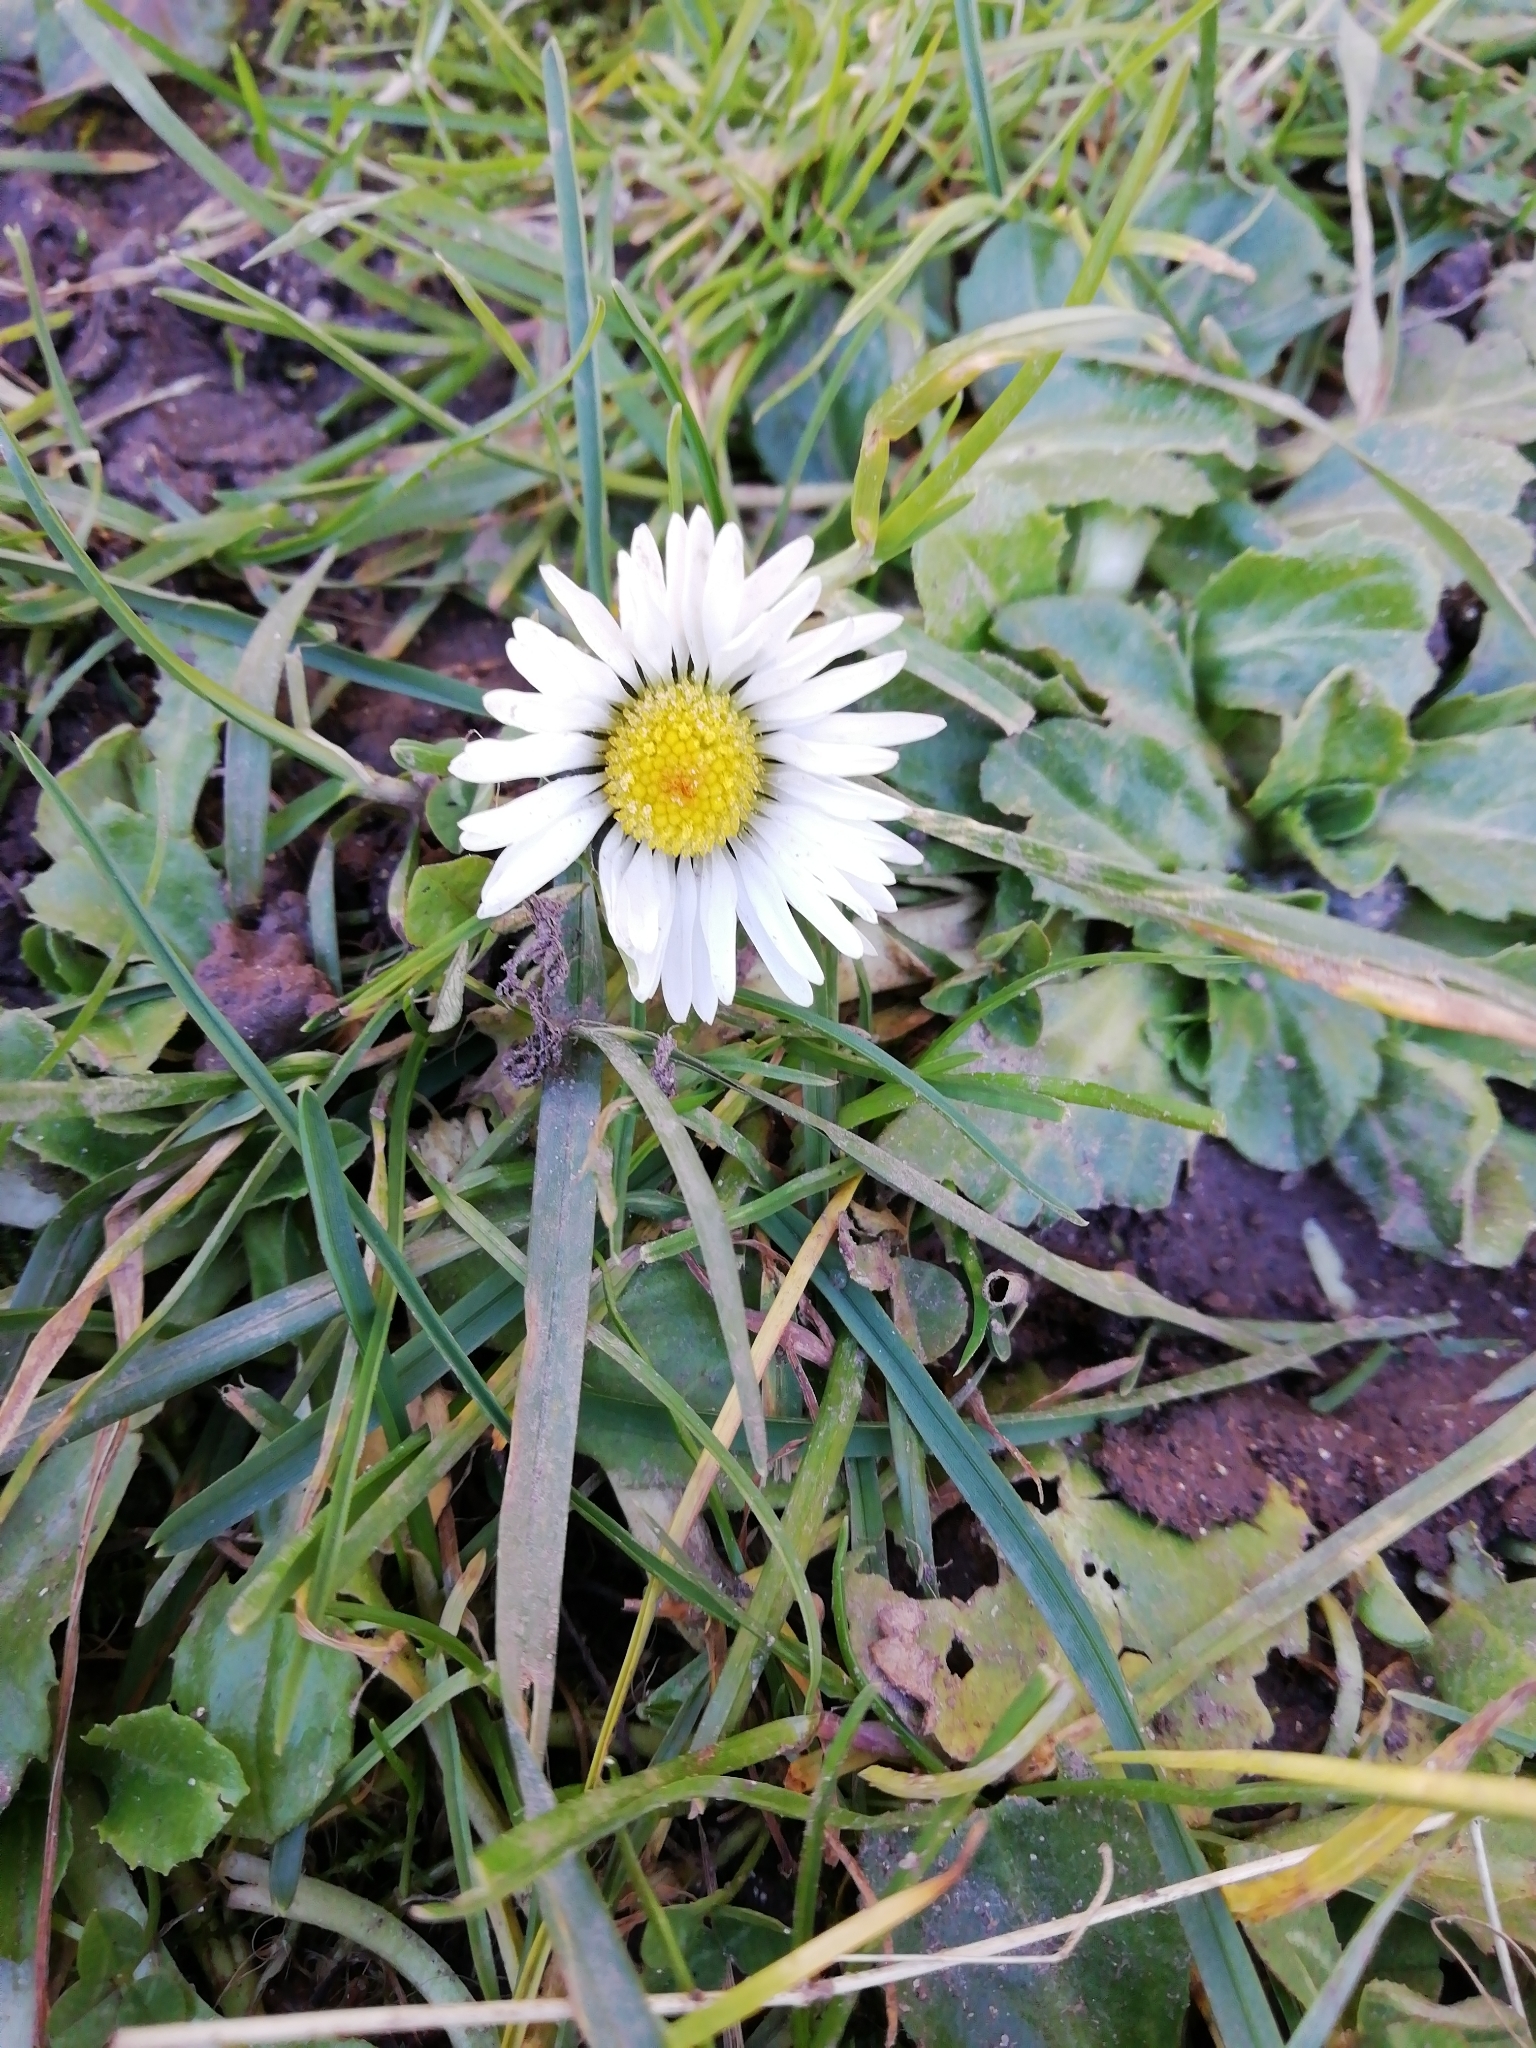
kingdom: Plantae
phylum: Tracheophyta
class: Magnoliopsida
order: Asterales
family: Asteraceae
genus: Bellis
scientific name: Bellis perennis
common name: Lawndaisy
